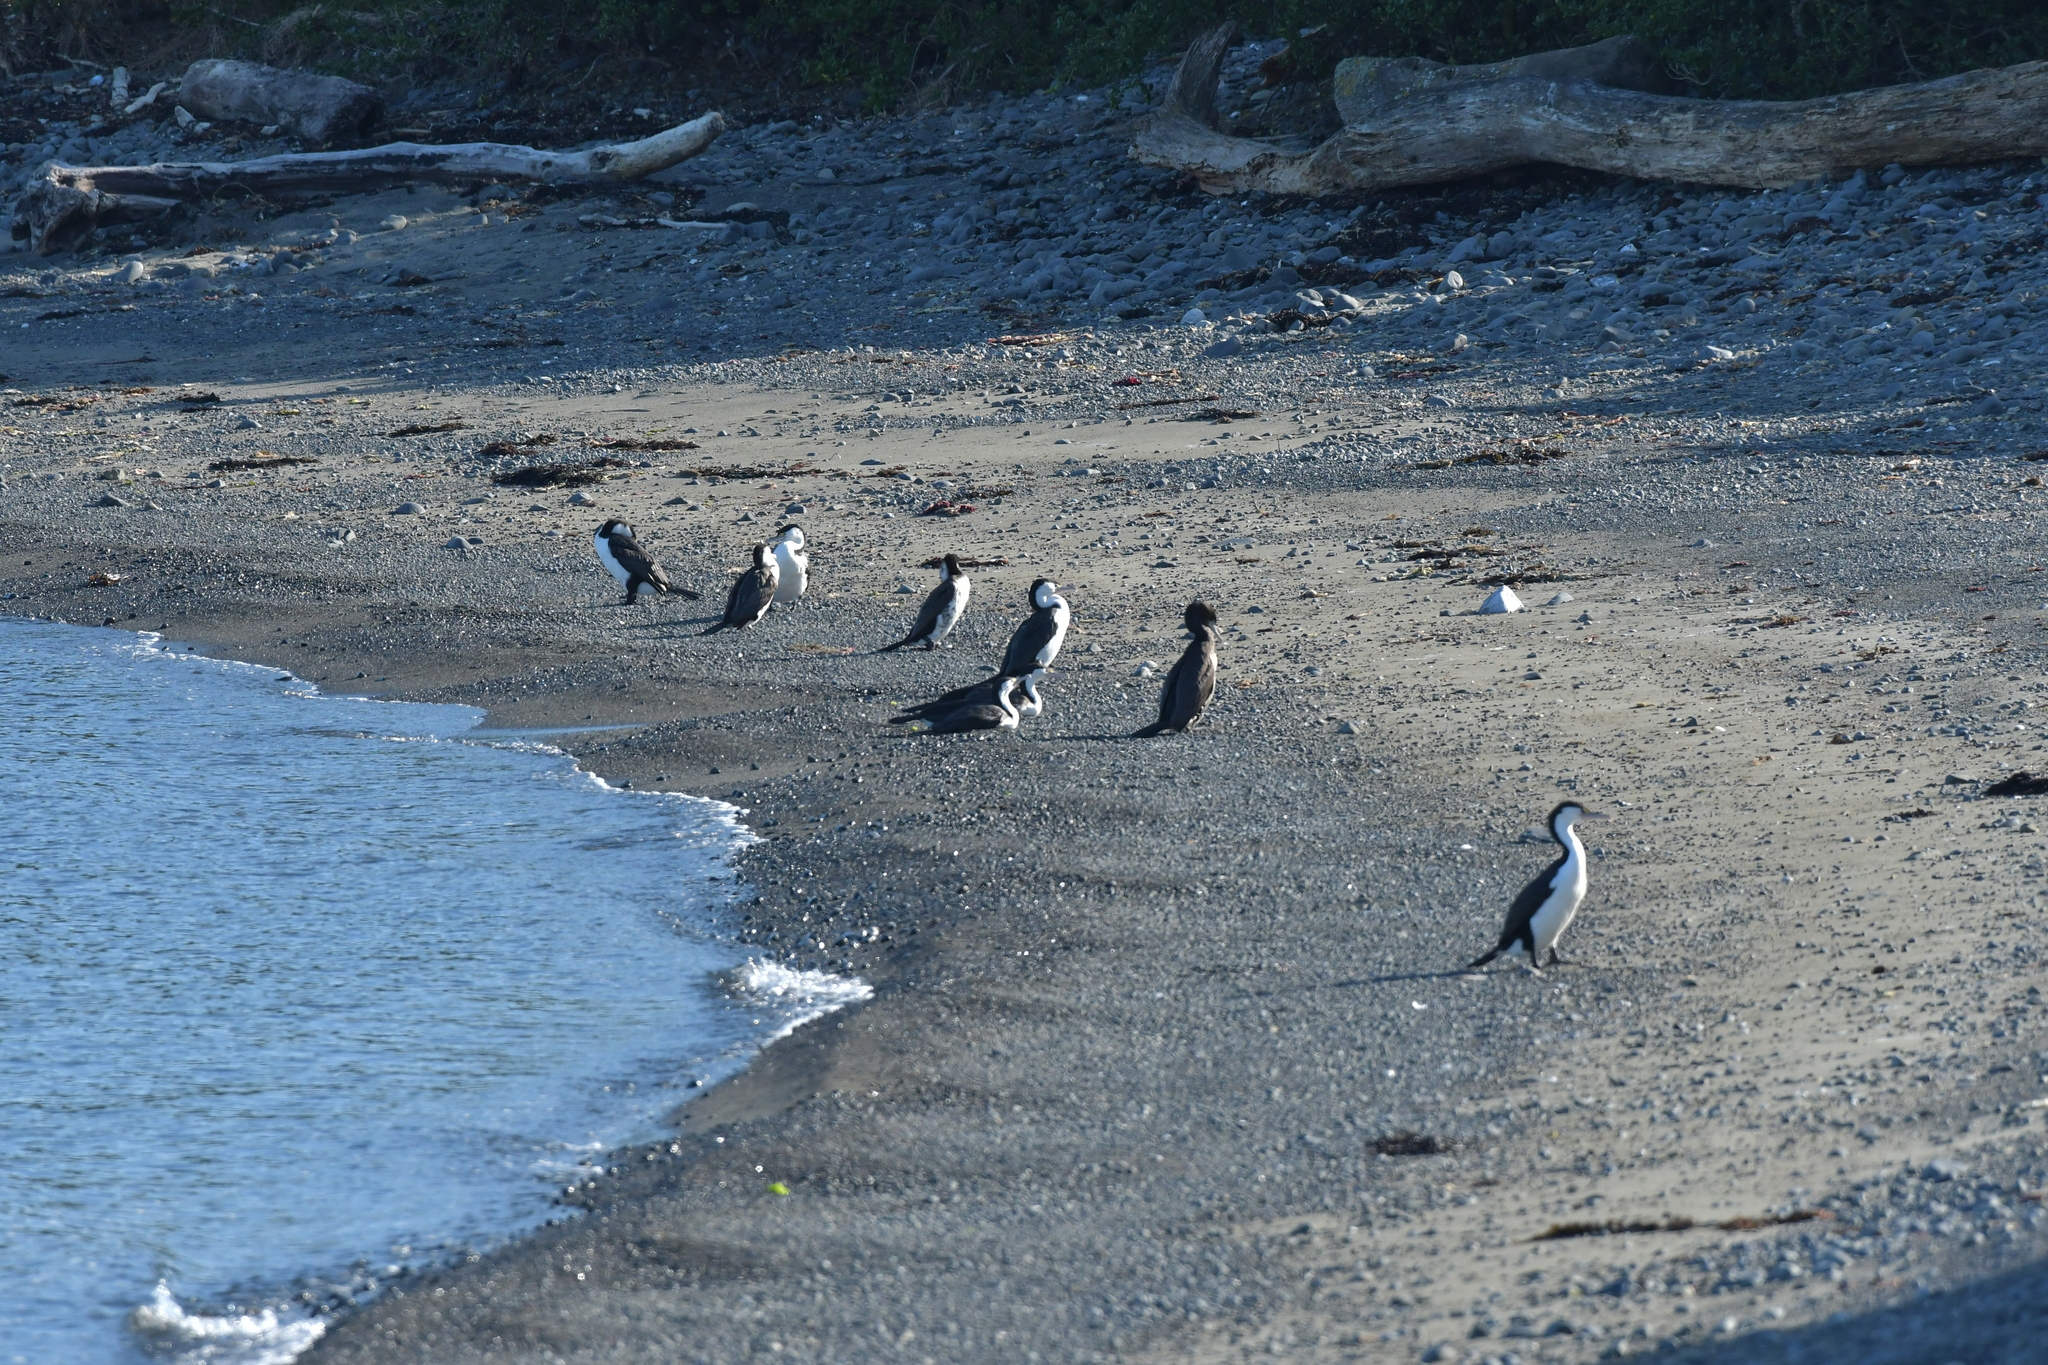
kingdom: Animalia
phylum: Chordata
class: Aves
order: Suliformes
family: Phalacrocoracidae
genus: Phalacrocorax
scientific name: Phalacrocorax varius
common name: Pied cormorant
